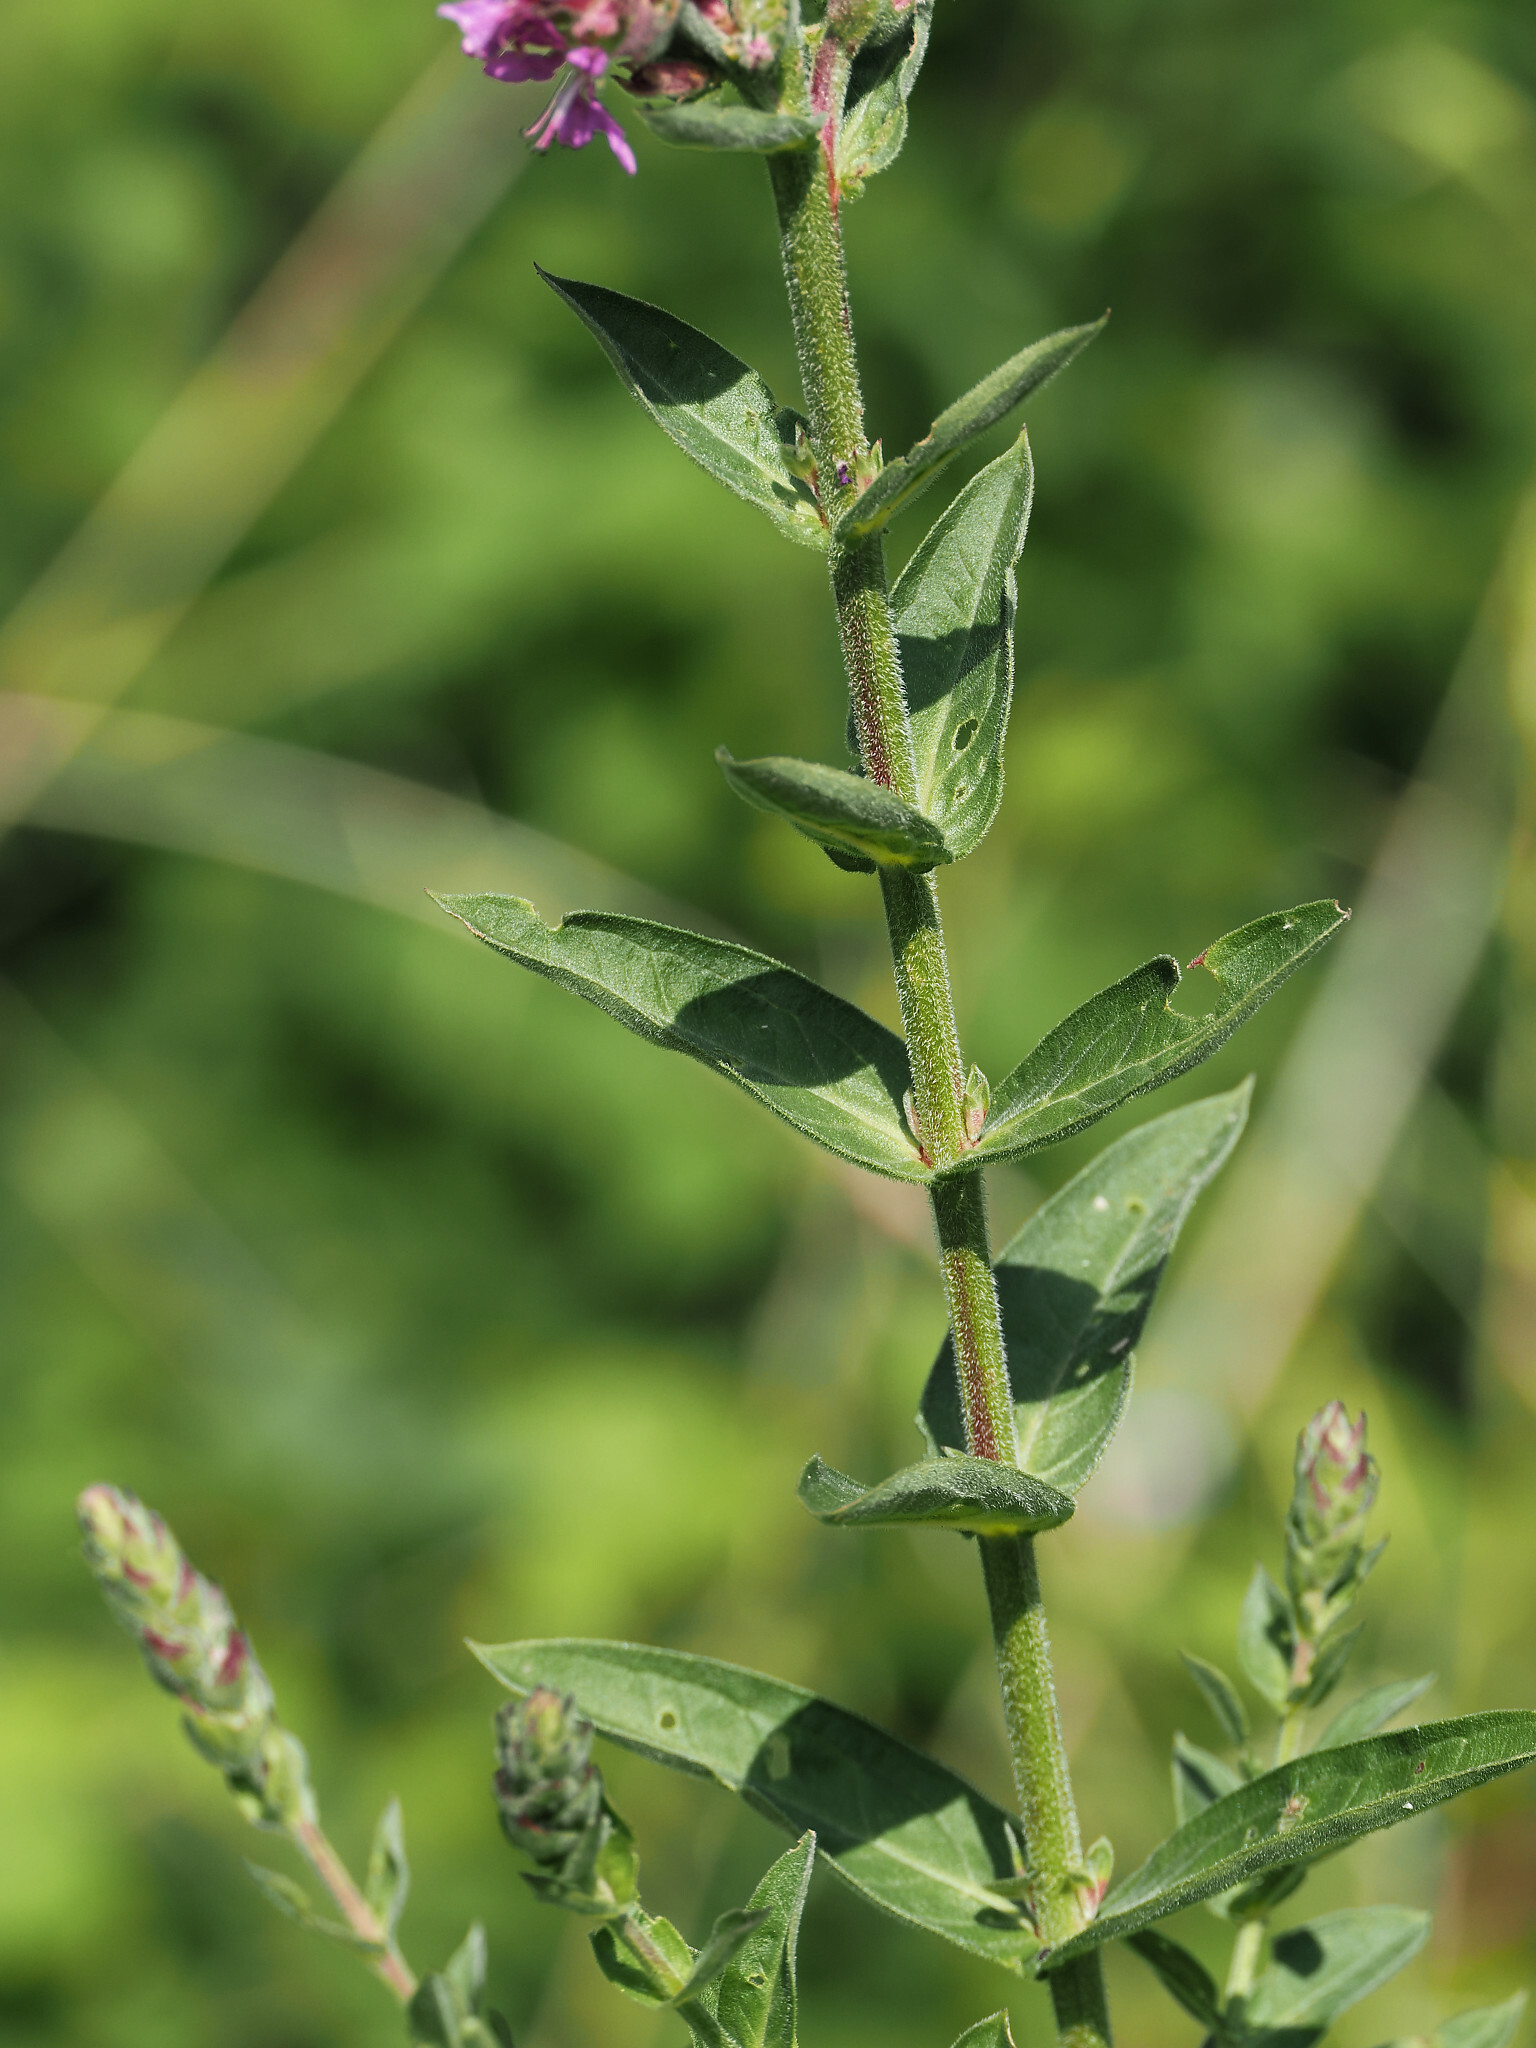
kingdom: Plantae
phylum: Tracheophyta
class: Magnoliopsida
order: Myrtales
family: Lythraceae
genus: Lythrum
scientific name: Lythrum salicaria
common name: Purple loosestrife
